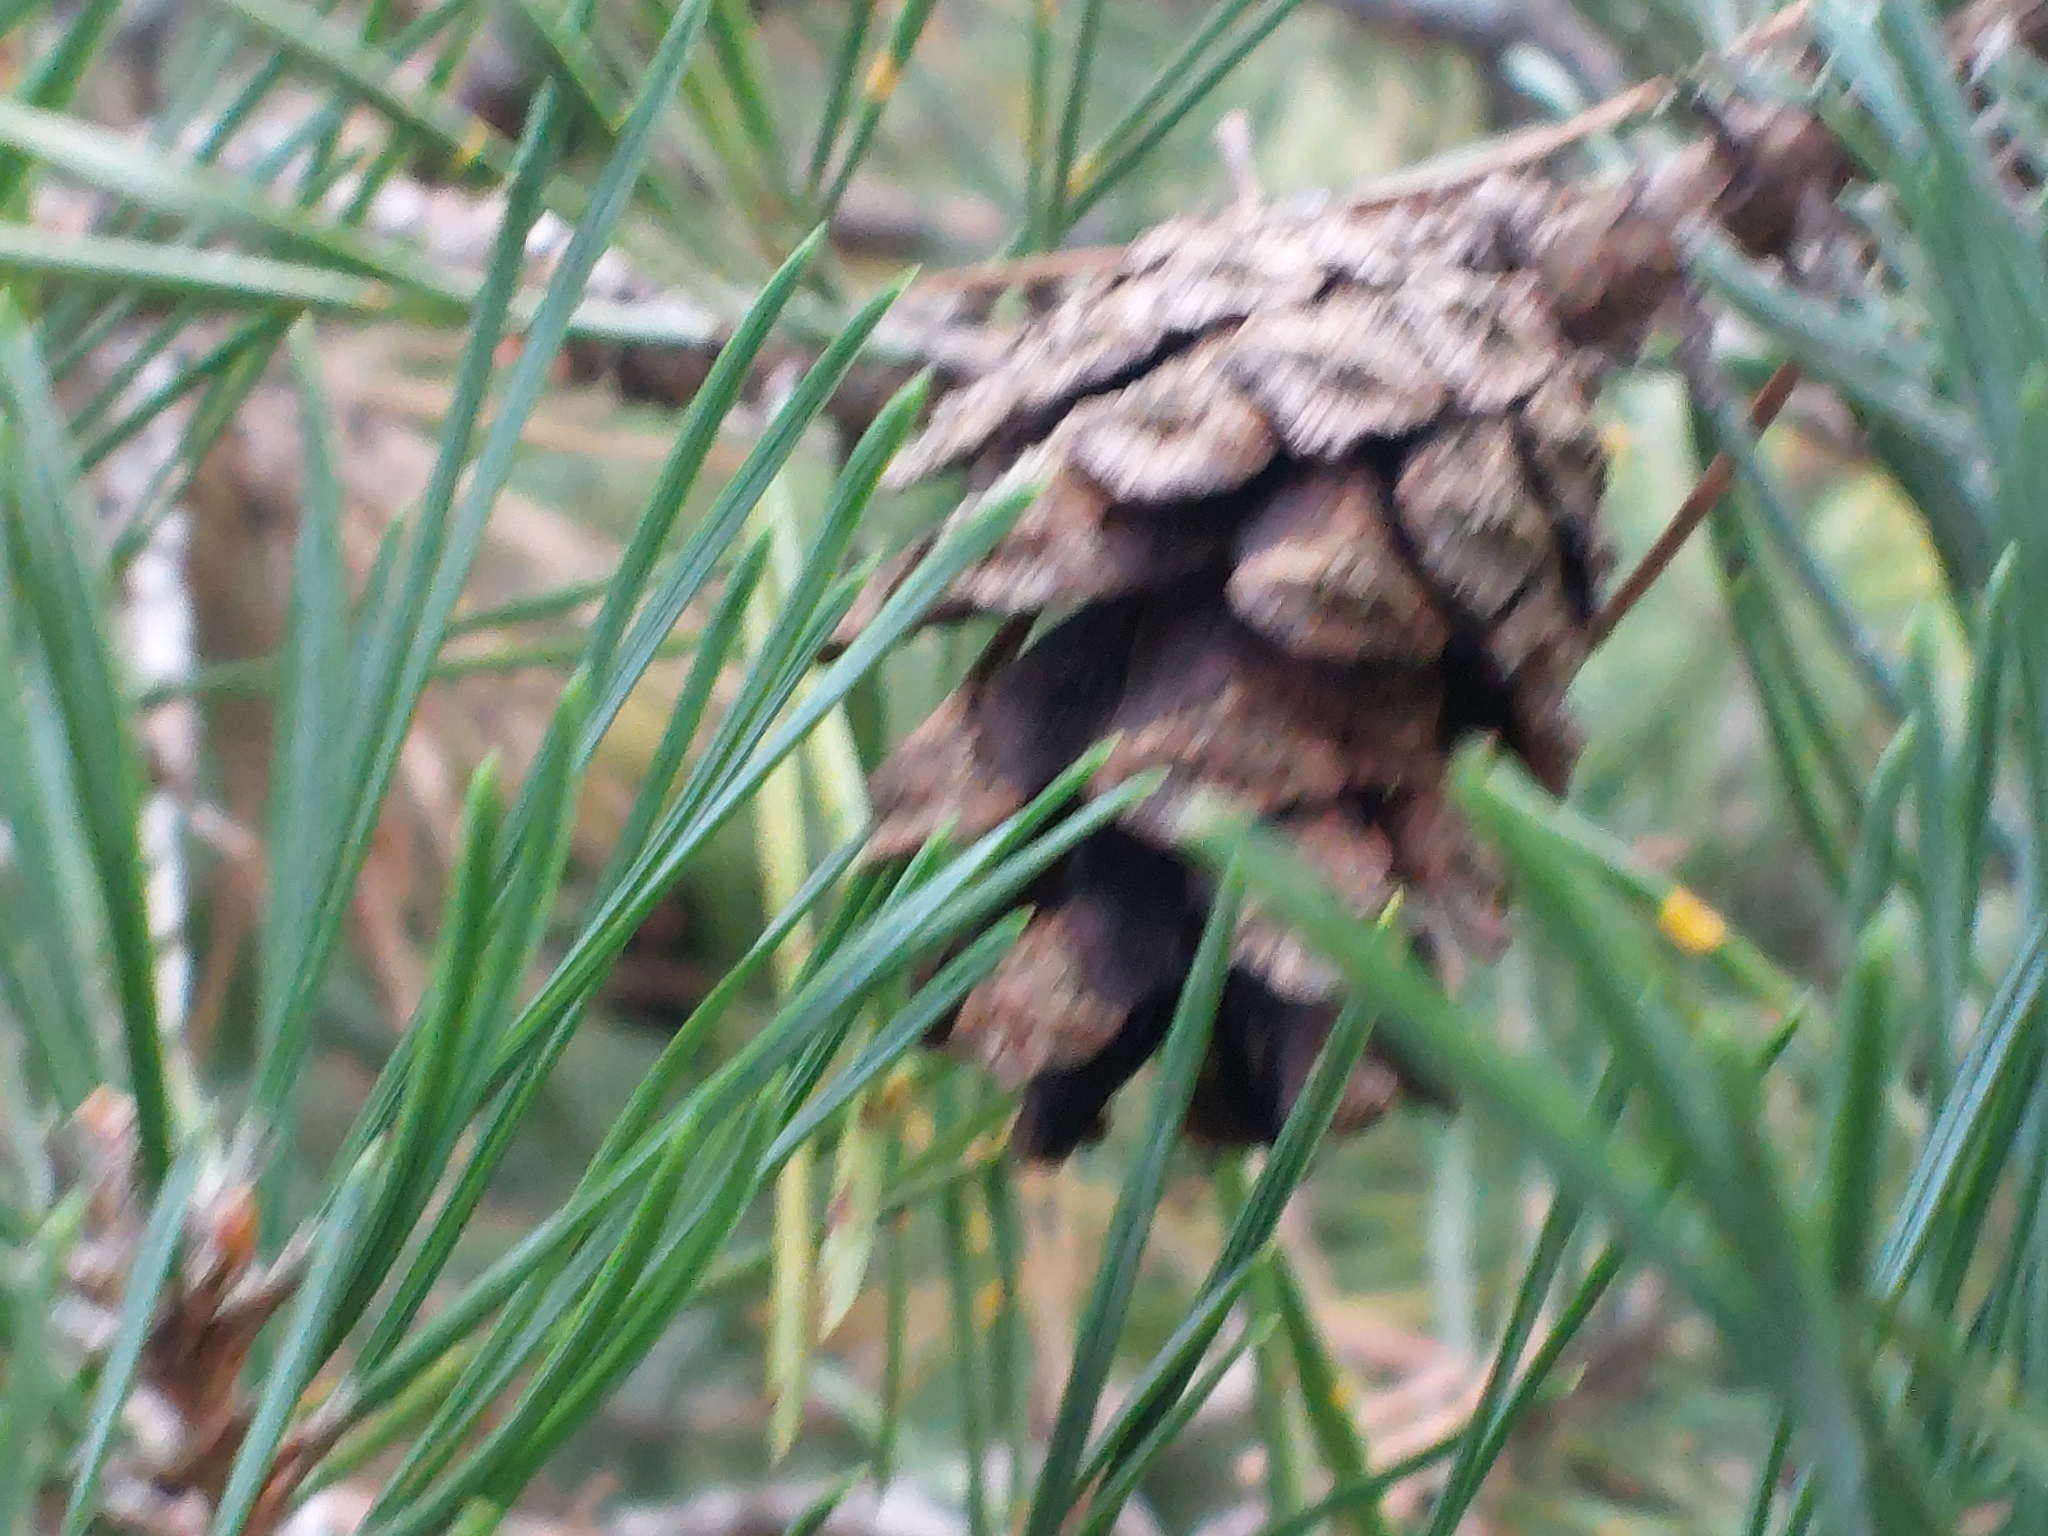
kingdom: Plantae
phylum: Tracheophyta
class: Pinopsida
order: Pinales
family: Pinaceae
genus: Pinus
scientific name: Pinus sylvestris
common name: Scots pine
